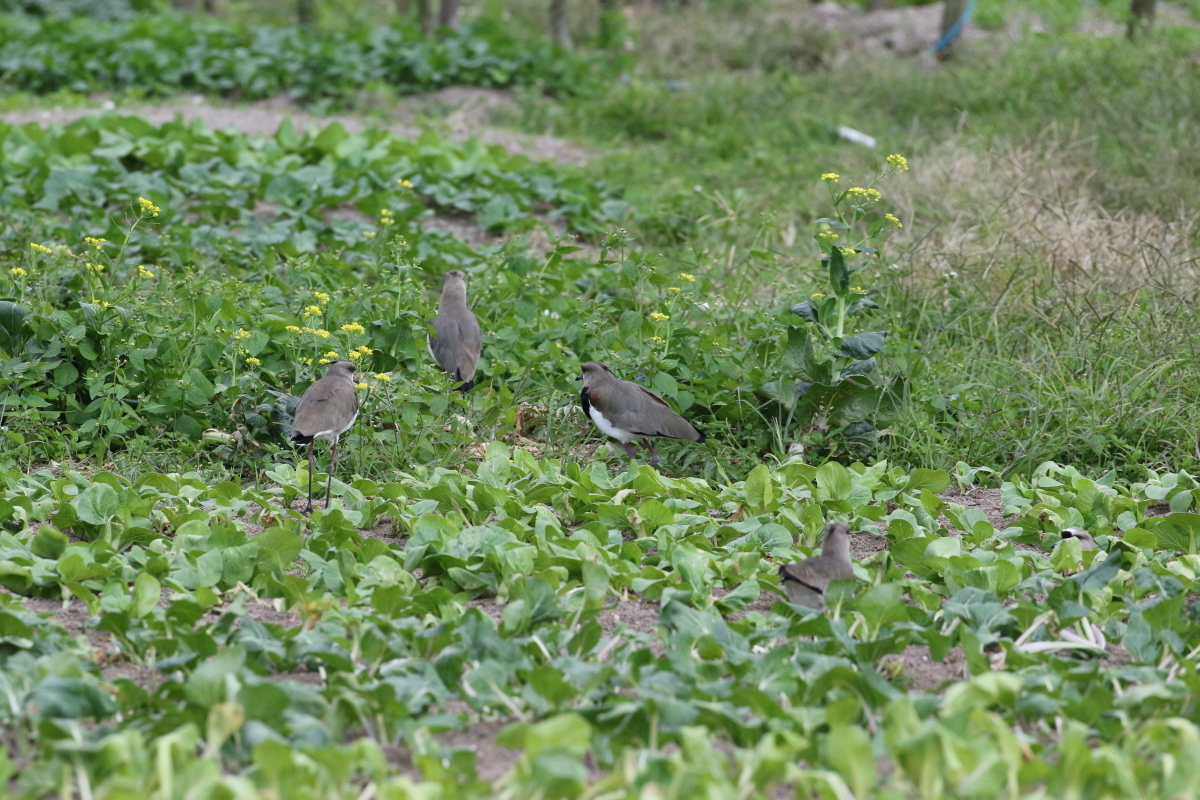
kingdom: Animalia
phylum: Chordata
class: Aves
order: Charadriiformes
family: Charadriidae
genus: Vanellus
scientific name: Vanellus chilensis
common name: Southern lapwing
